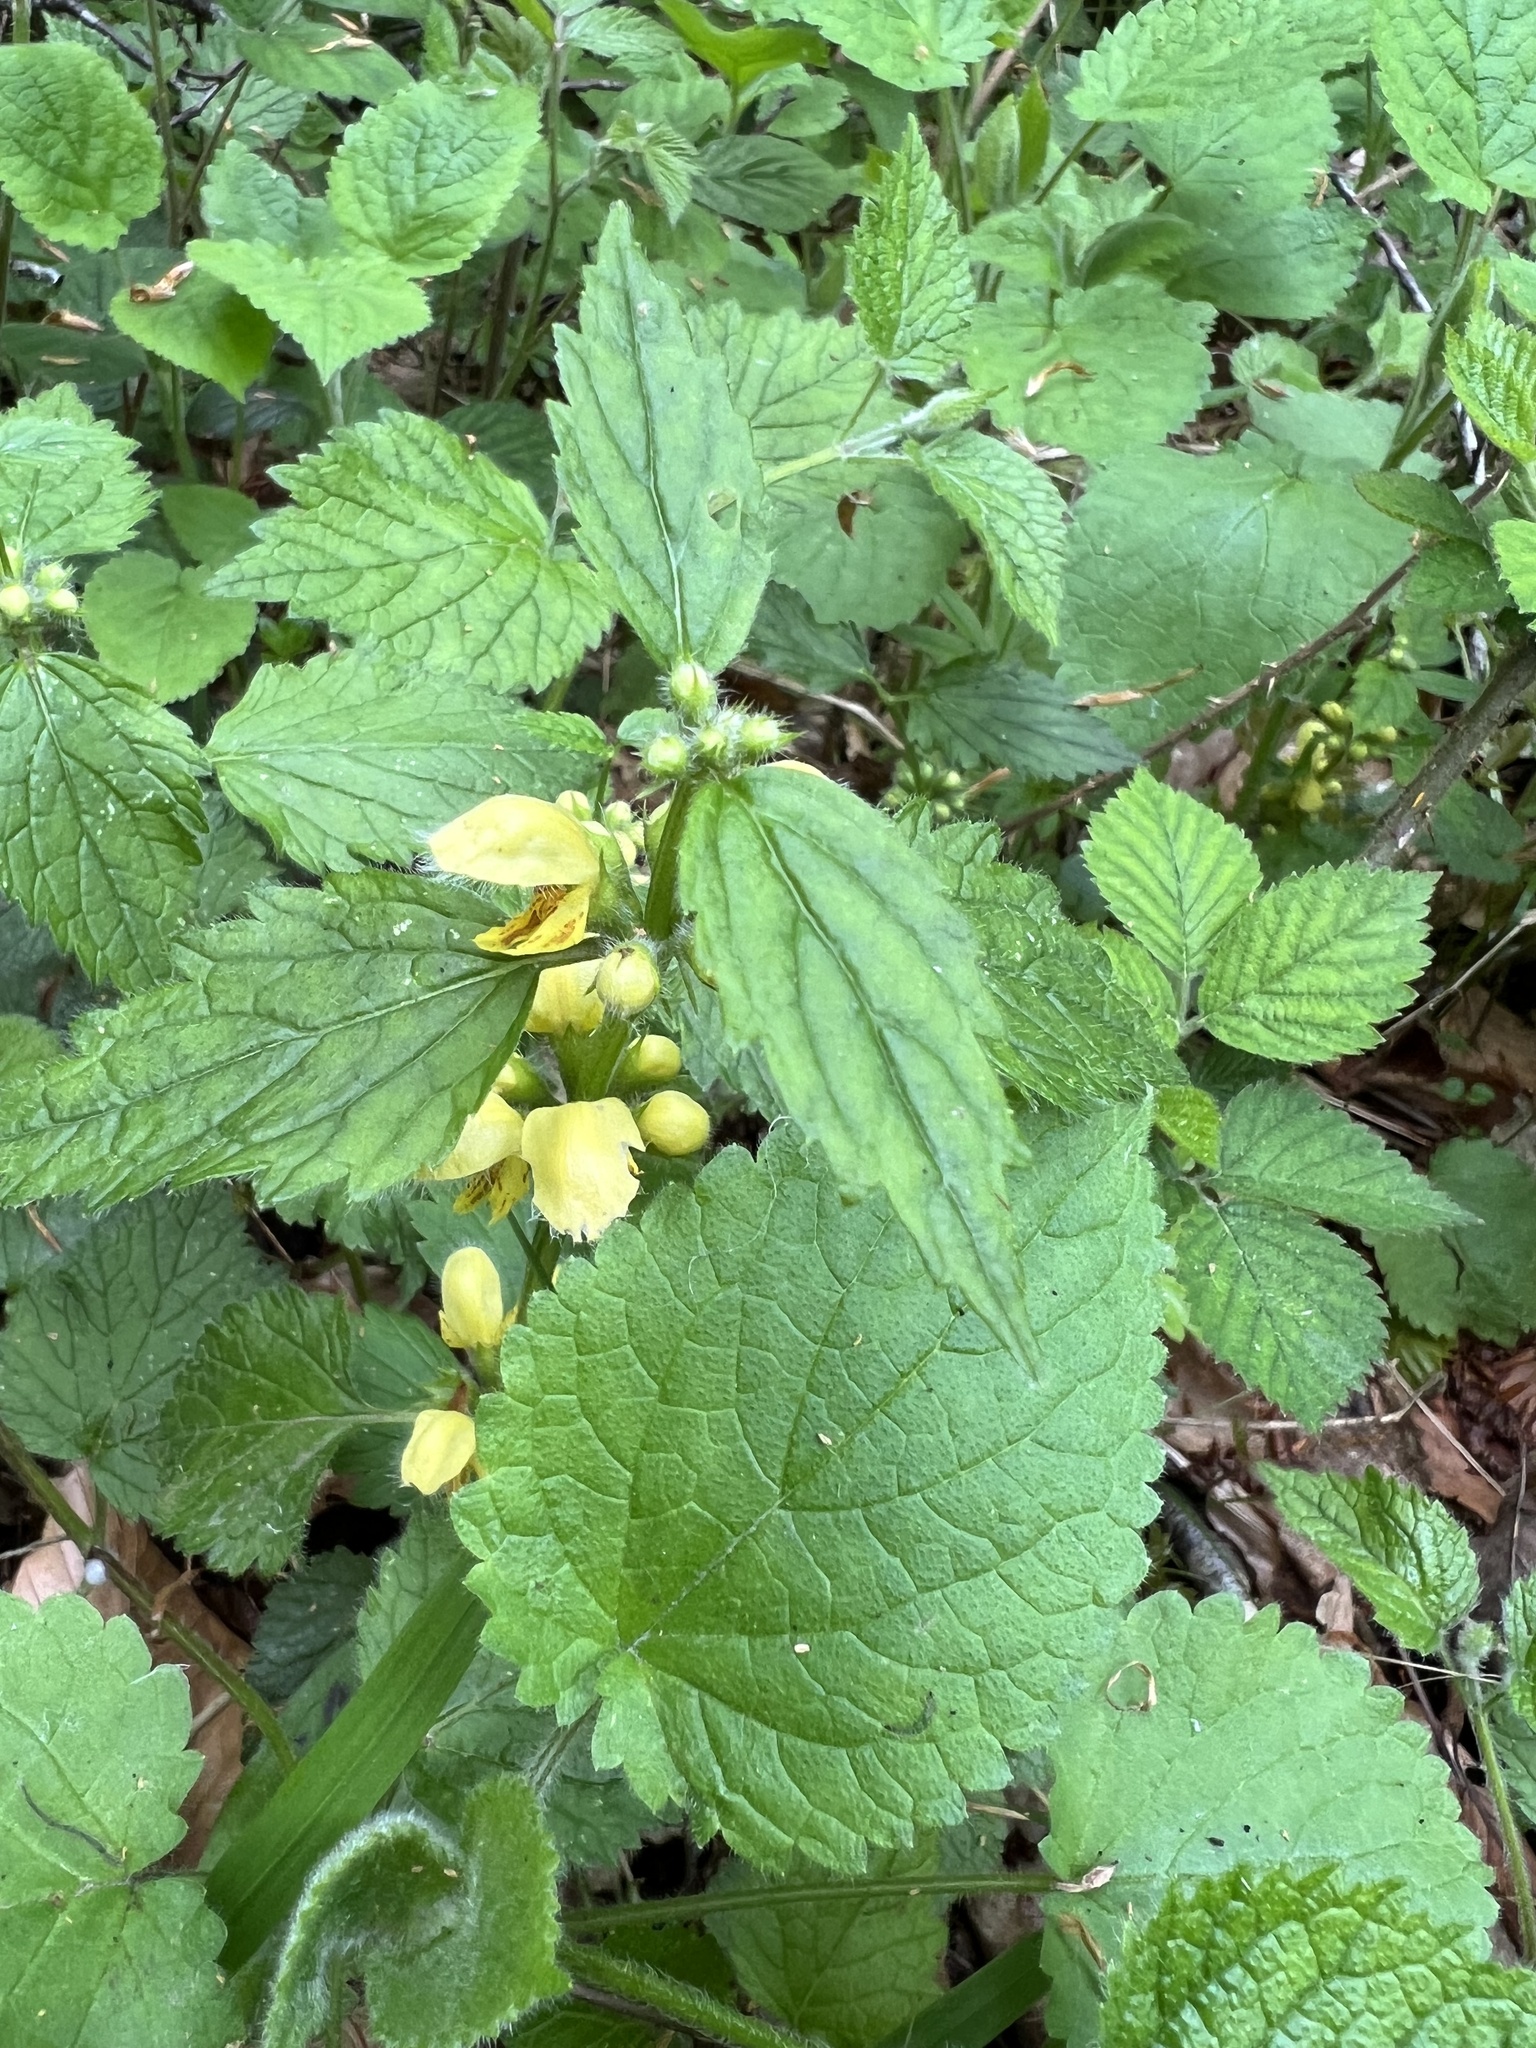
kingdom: Plantae
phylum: Tracheophyta
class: Magnoliopsida
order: Lamiales
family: Lamiaceae
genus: Lamium
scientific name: Lamium galeobdolon
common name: Yellow archangel
